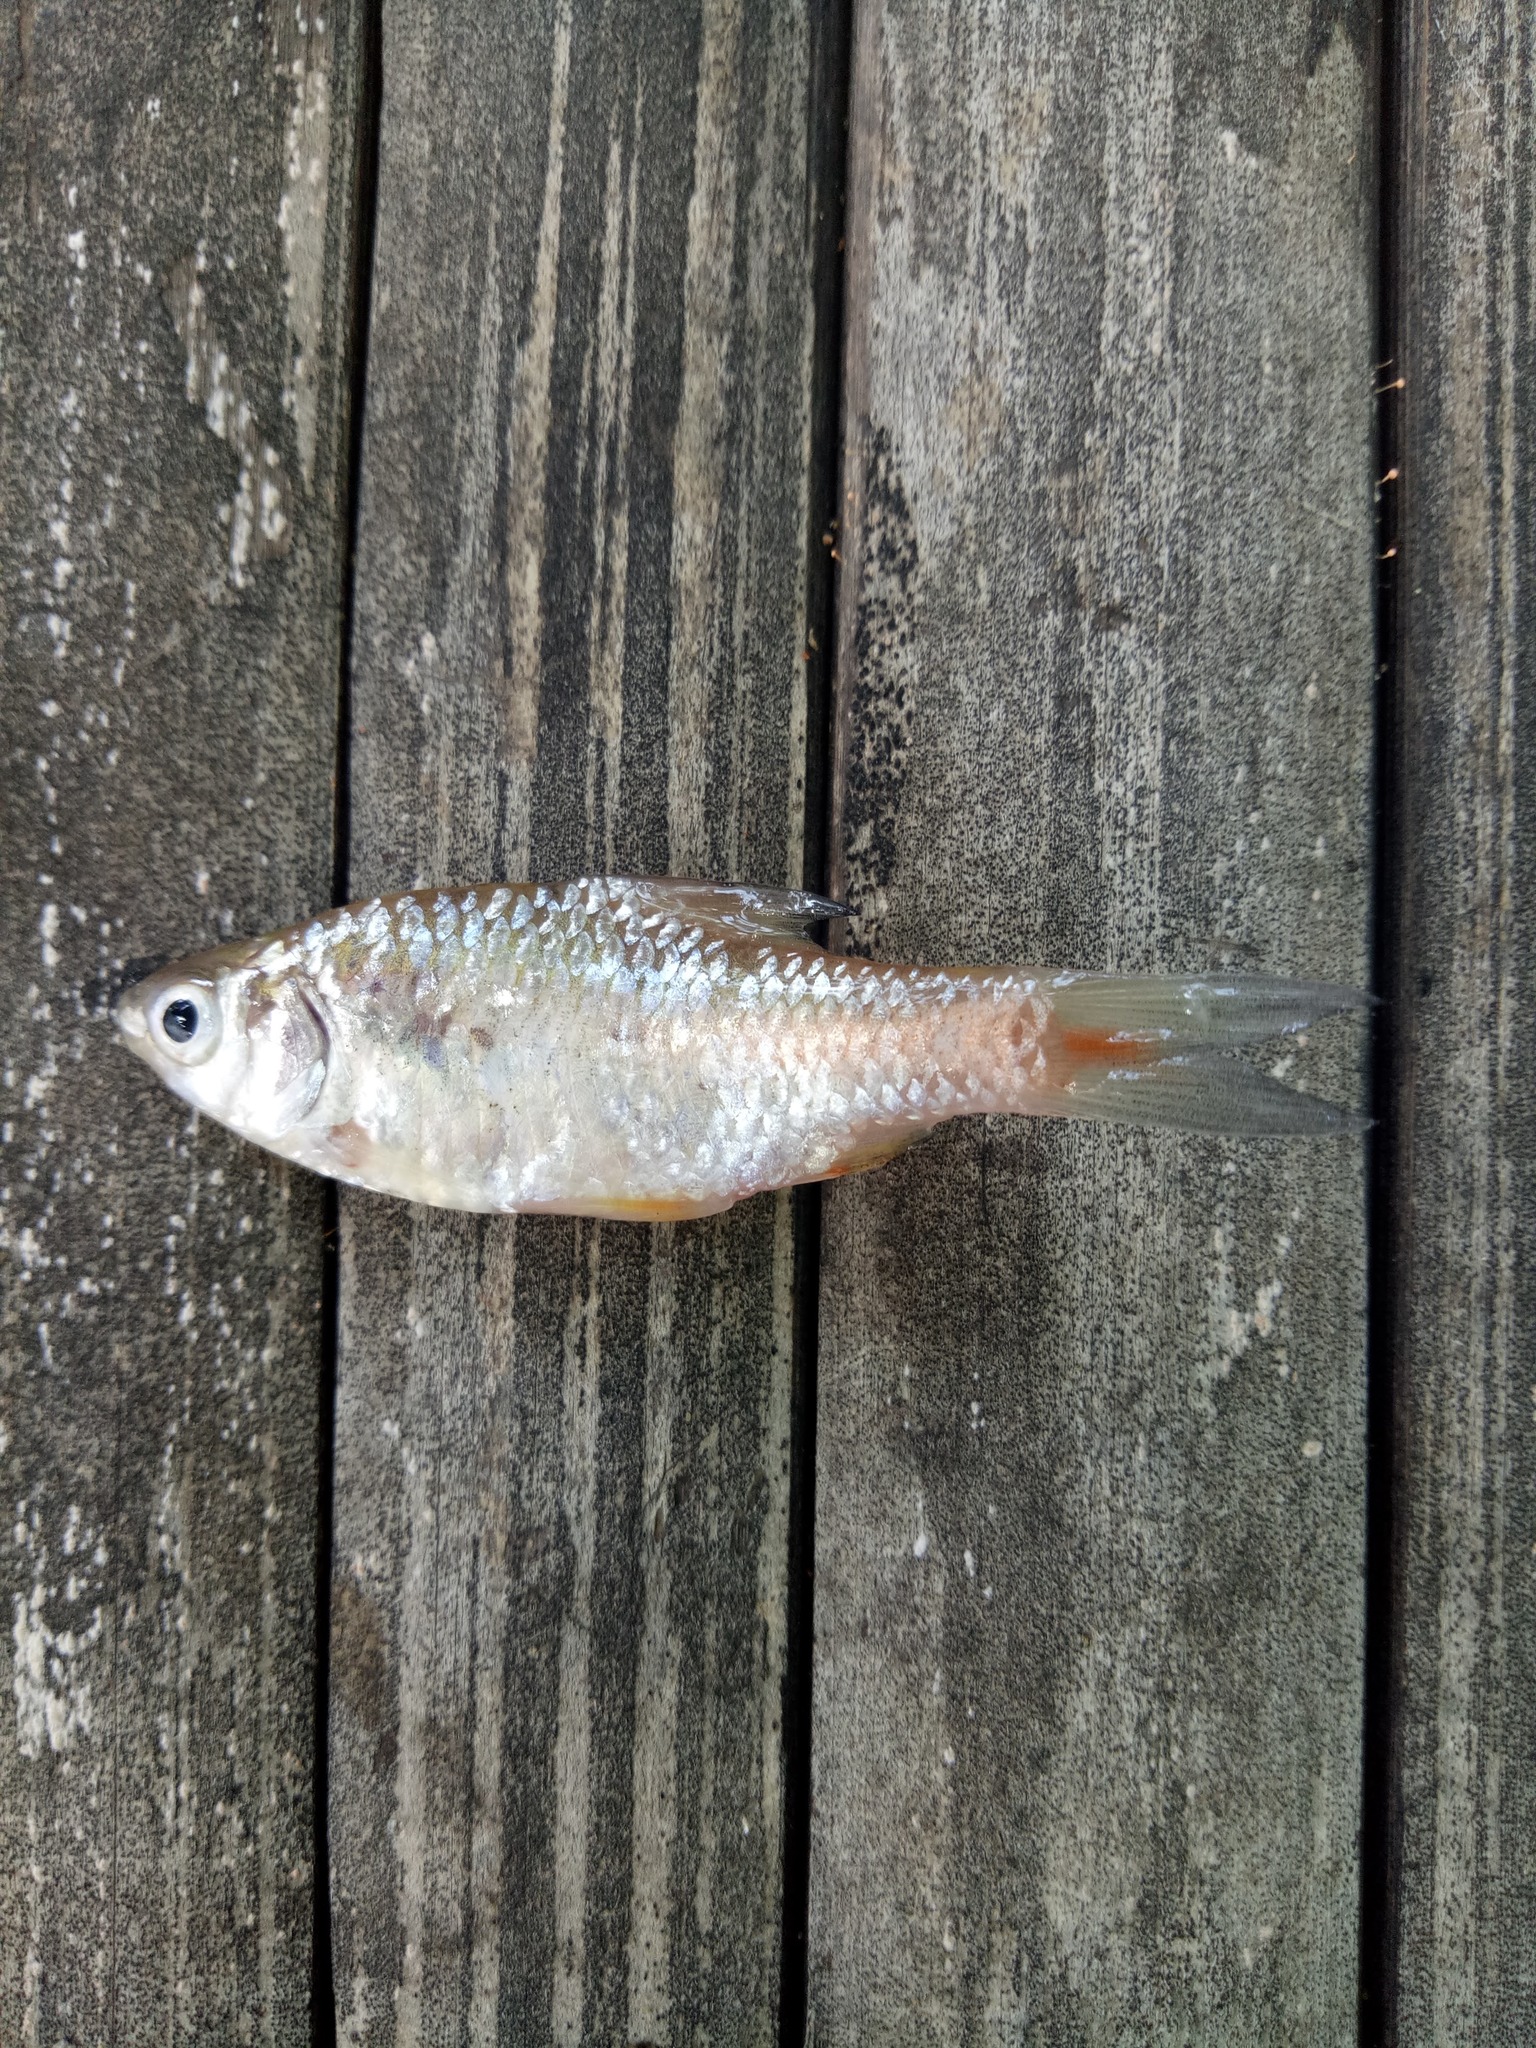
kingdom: Animalia
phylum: Chordata
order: Cypriniformes
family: Cyprinidae
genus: Puntius
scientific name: Puntius brevis
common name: Swamp barb
